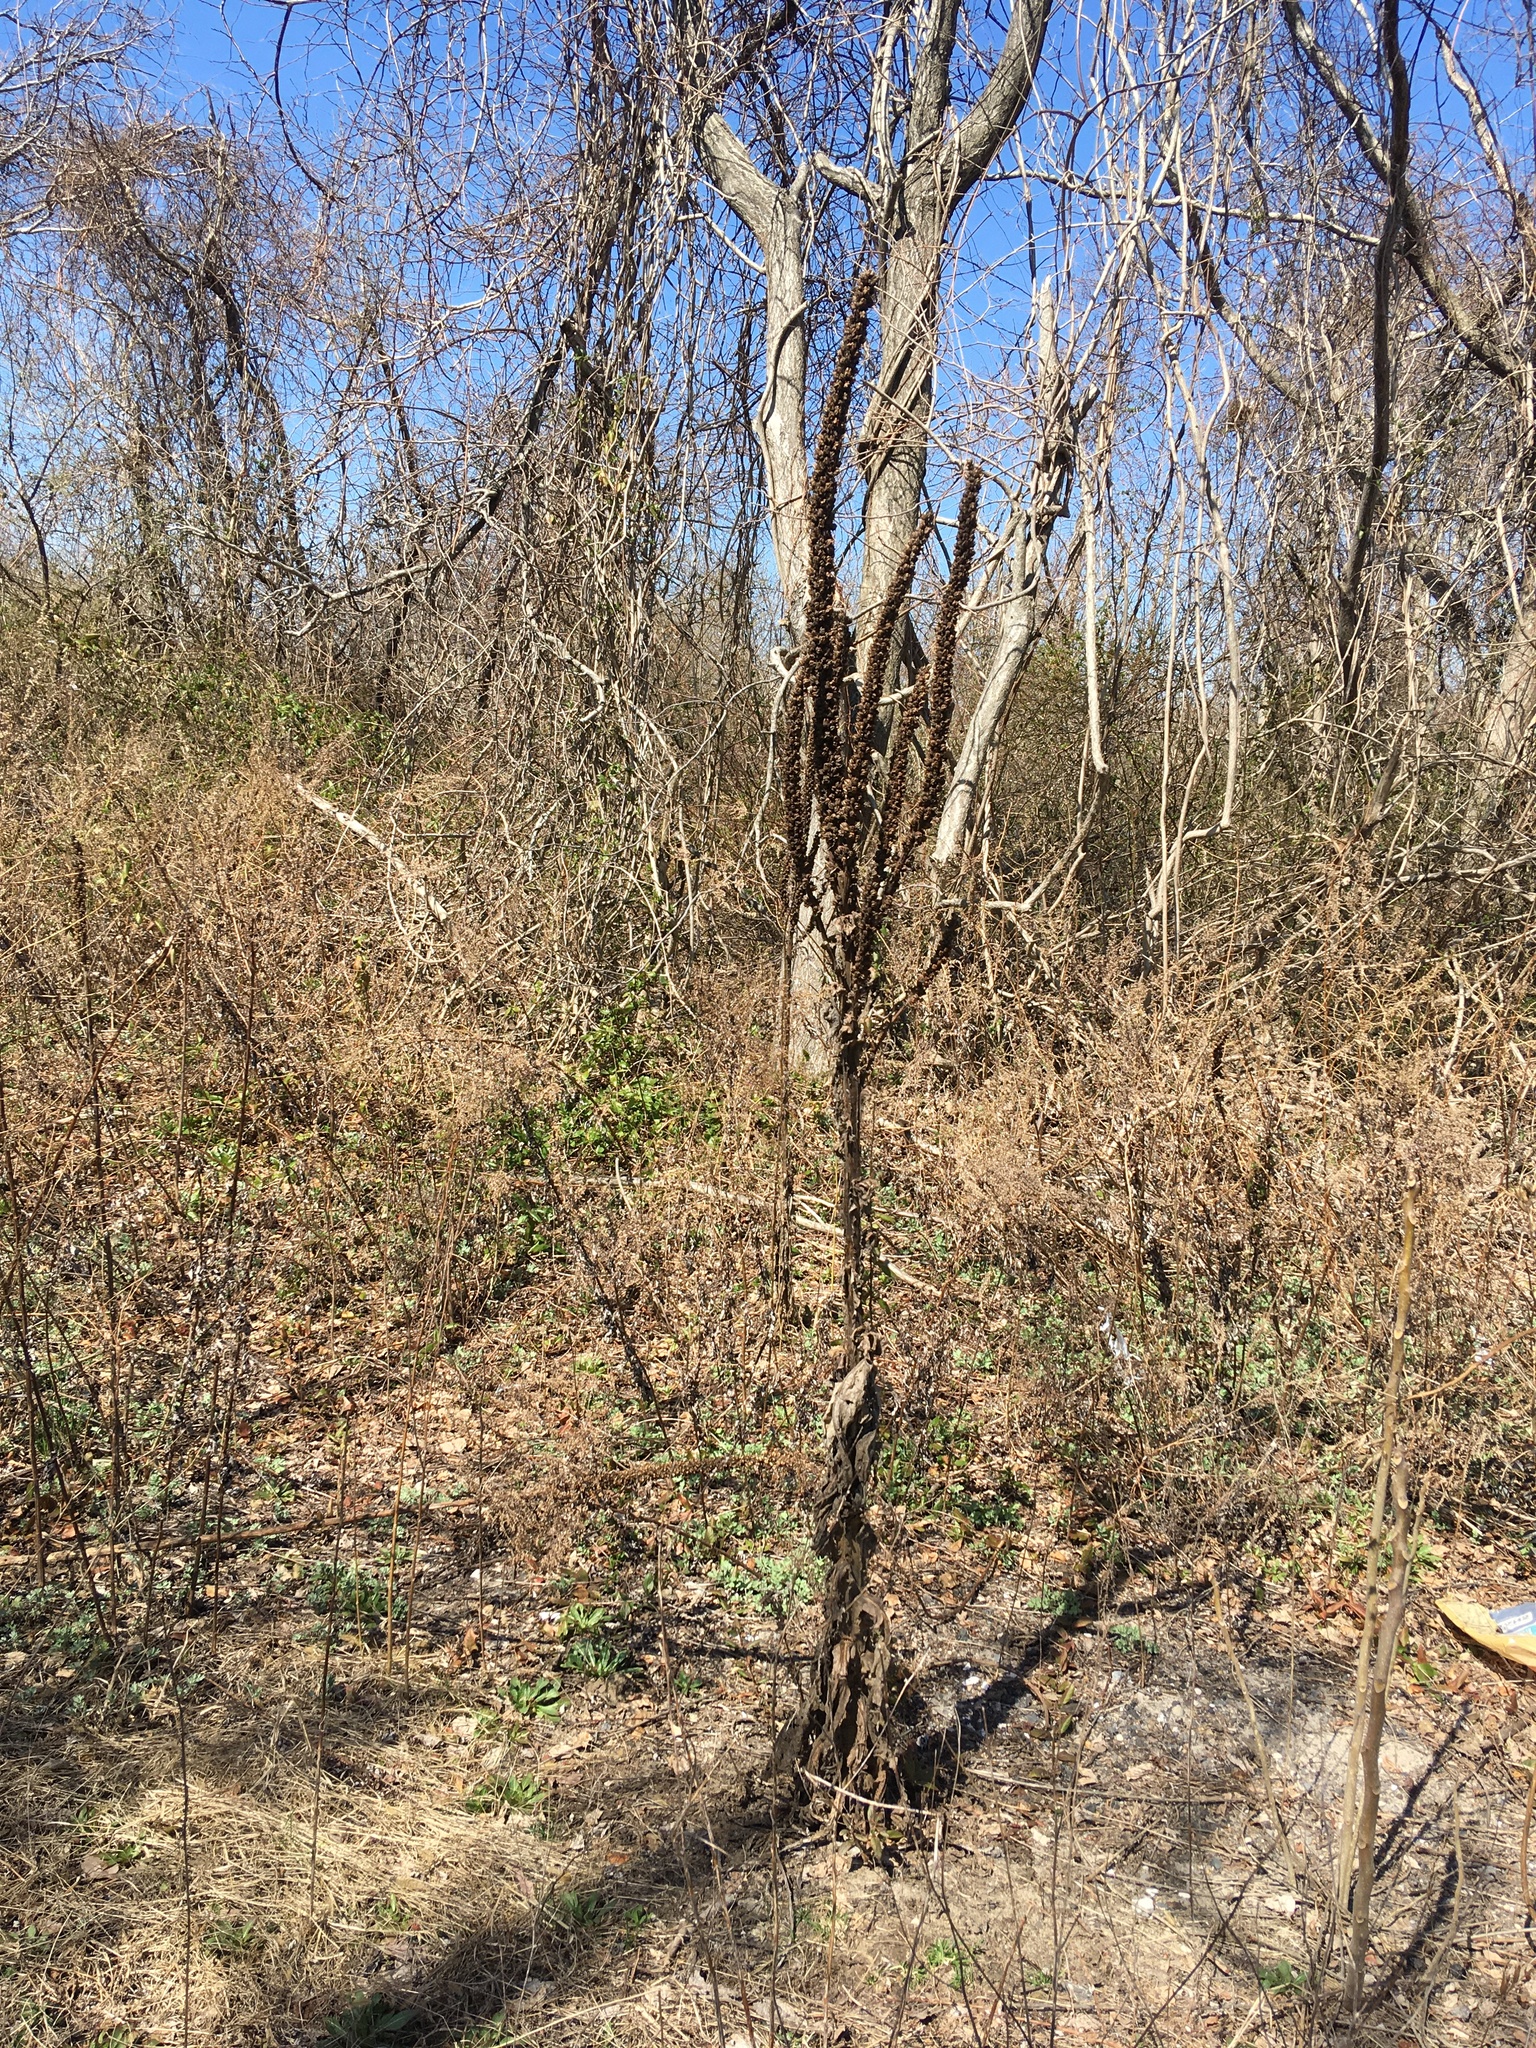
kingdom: Plantae
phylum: Tracheophyta
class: Magnoliopsida
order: Lamiales
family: Scrophulariaceae
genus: Verbascum
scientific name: Verbascum thapsus
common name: Common mullein
